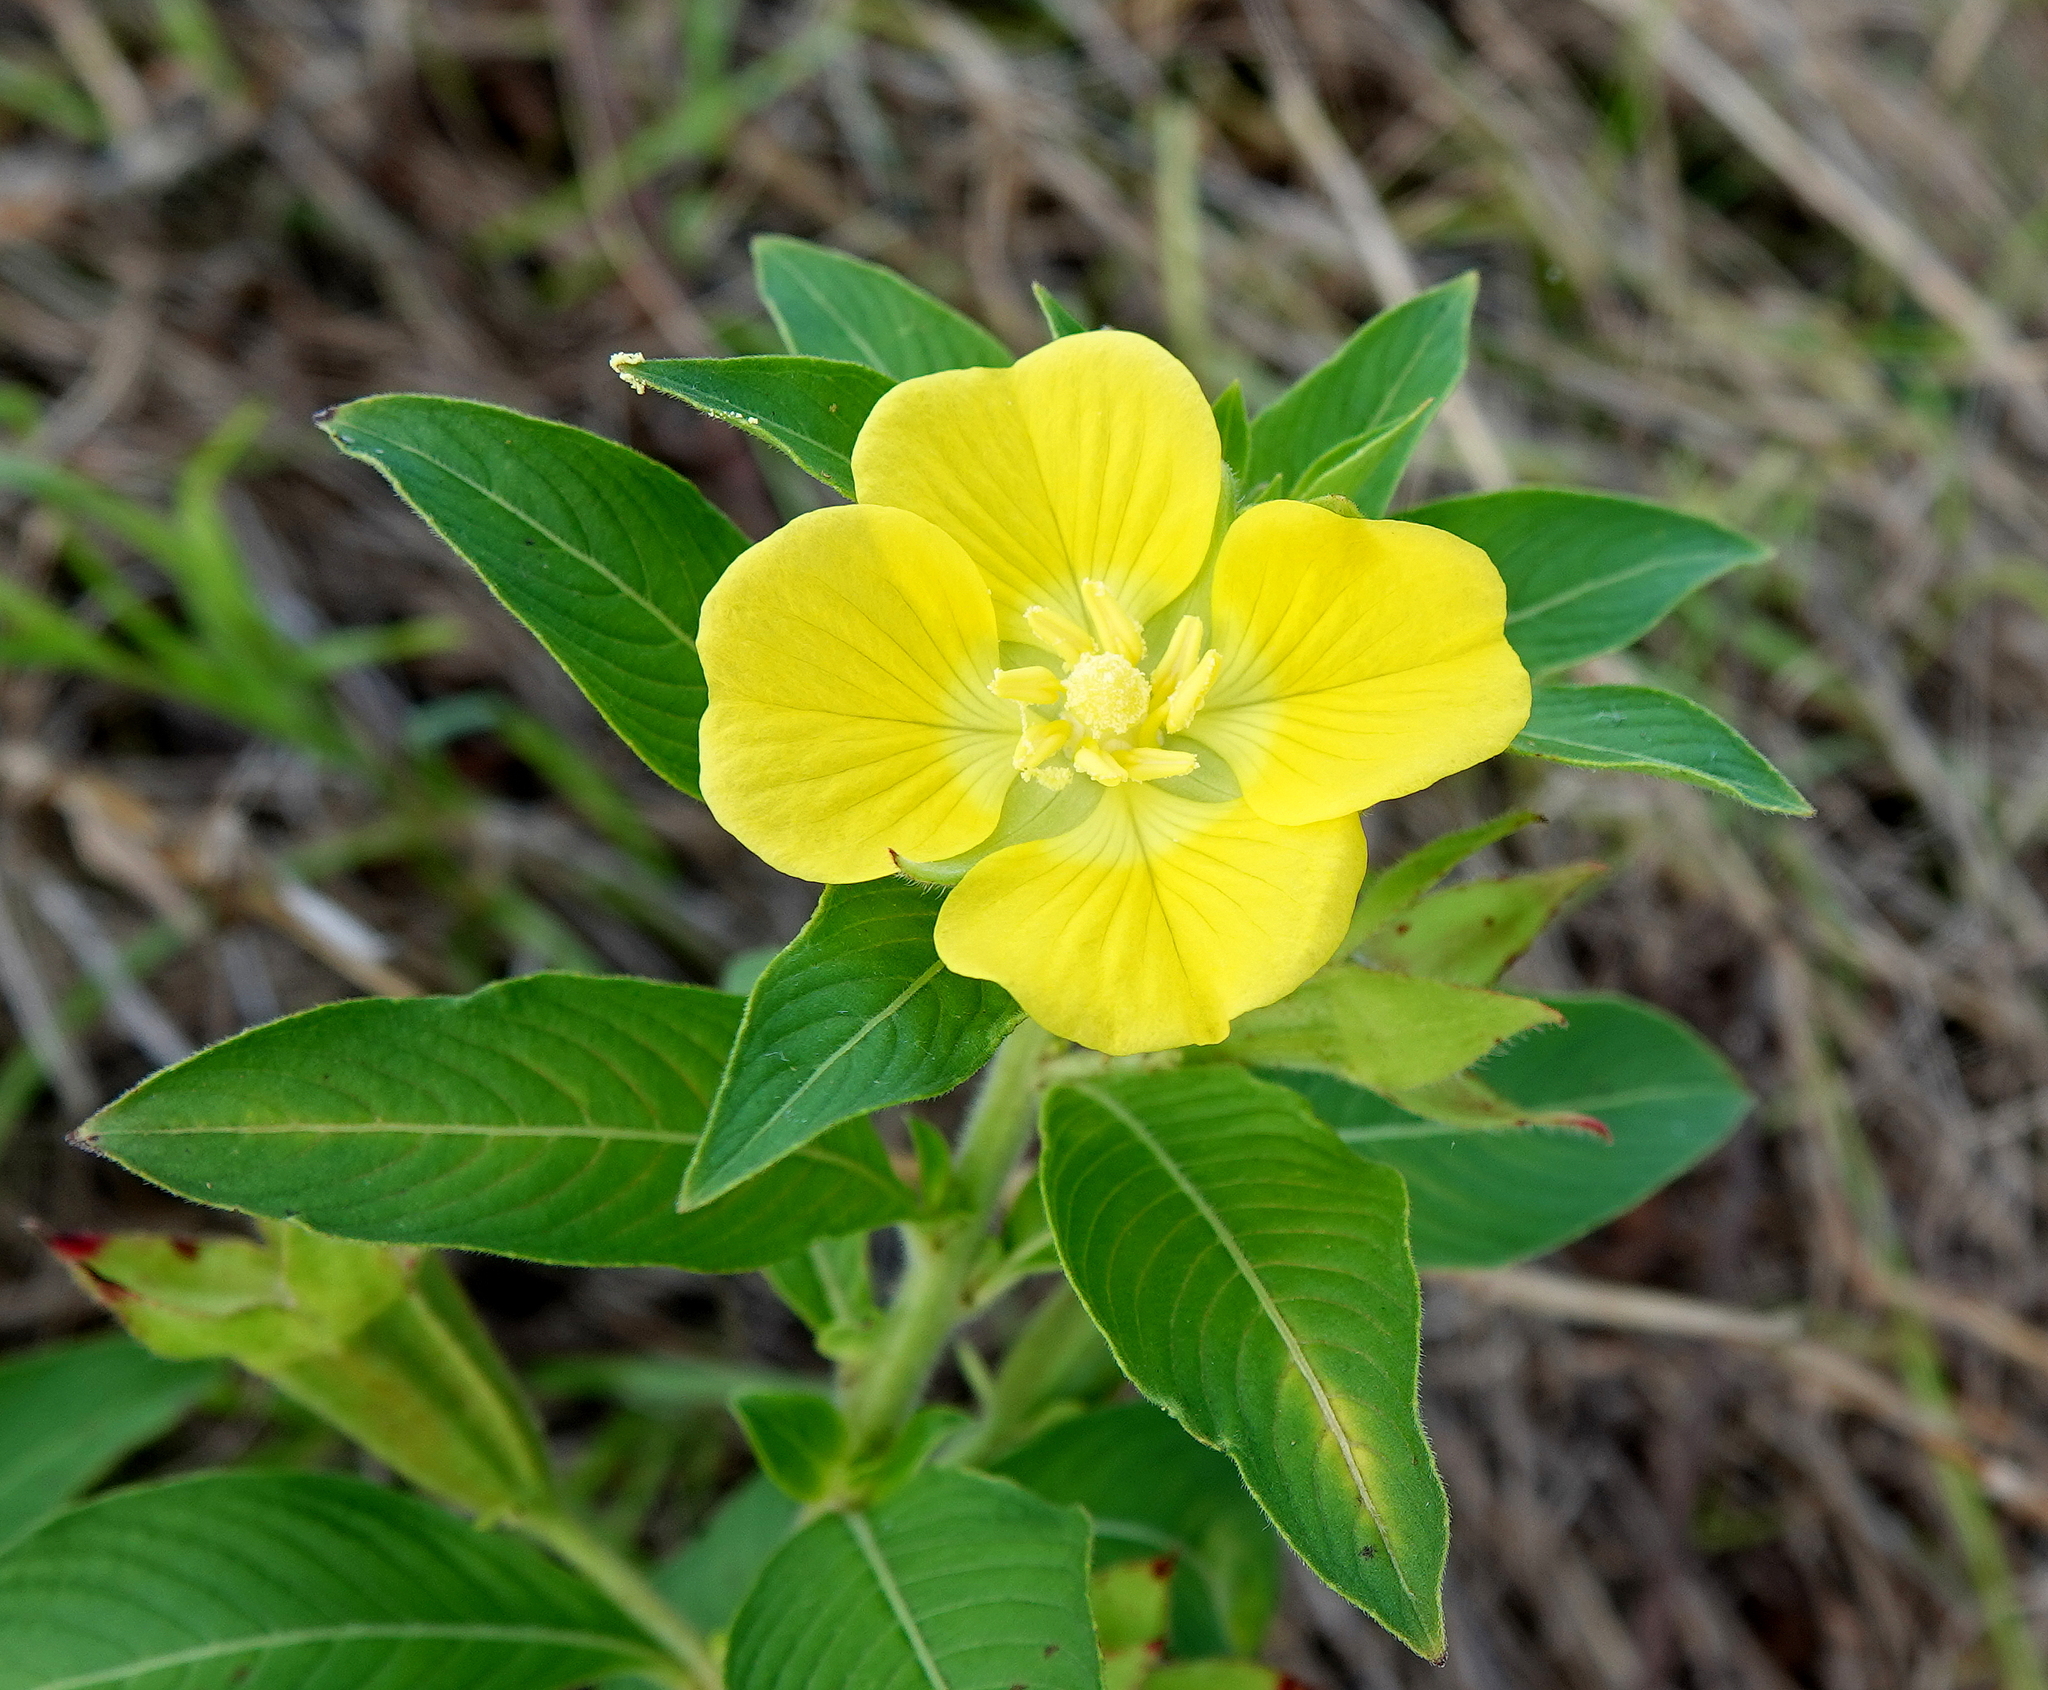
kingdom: Plantae
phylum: Tracheophyta
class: Magnoliopsida
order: Myrtales
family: Onagraceae
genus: Ludwigia
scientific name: Ludwigia peruviana
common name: Peruvian primrose-willow
